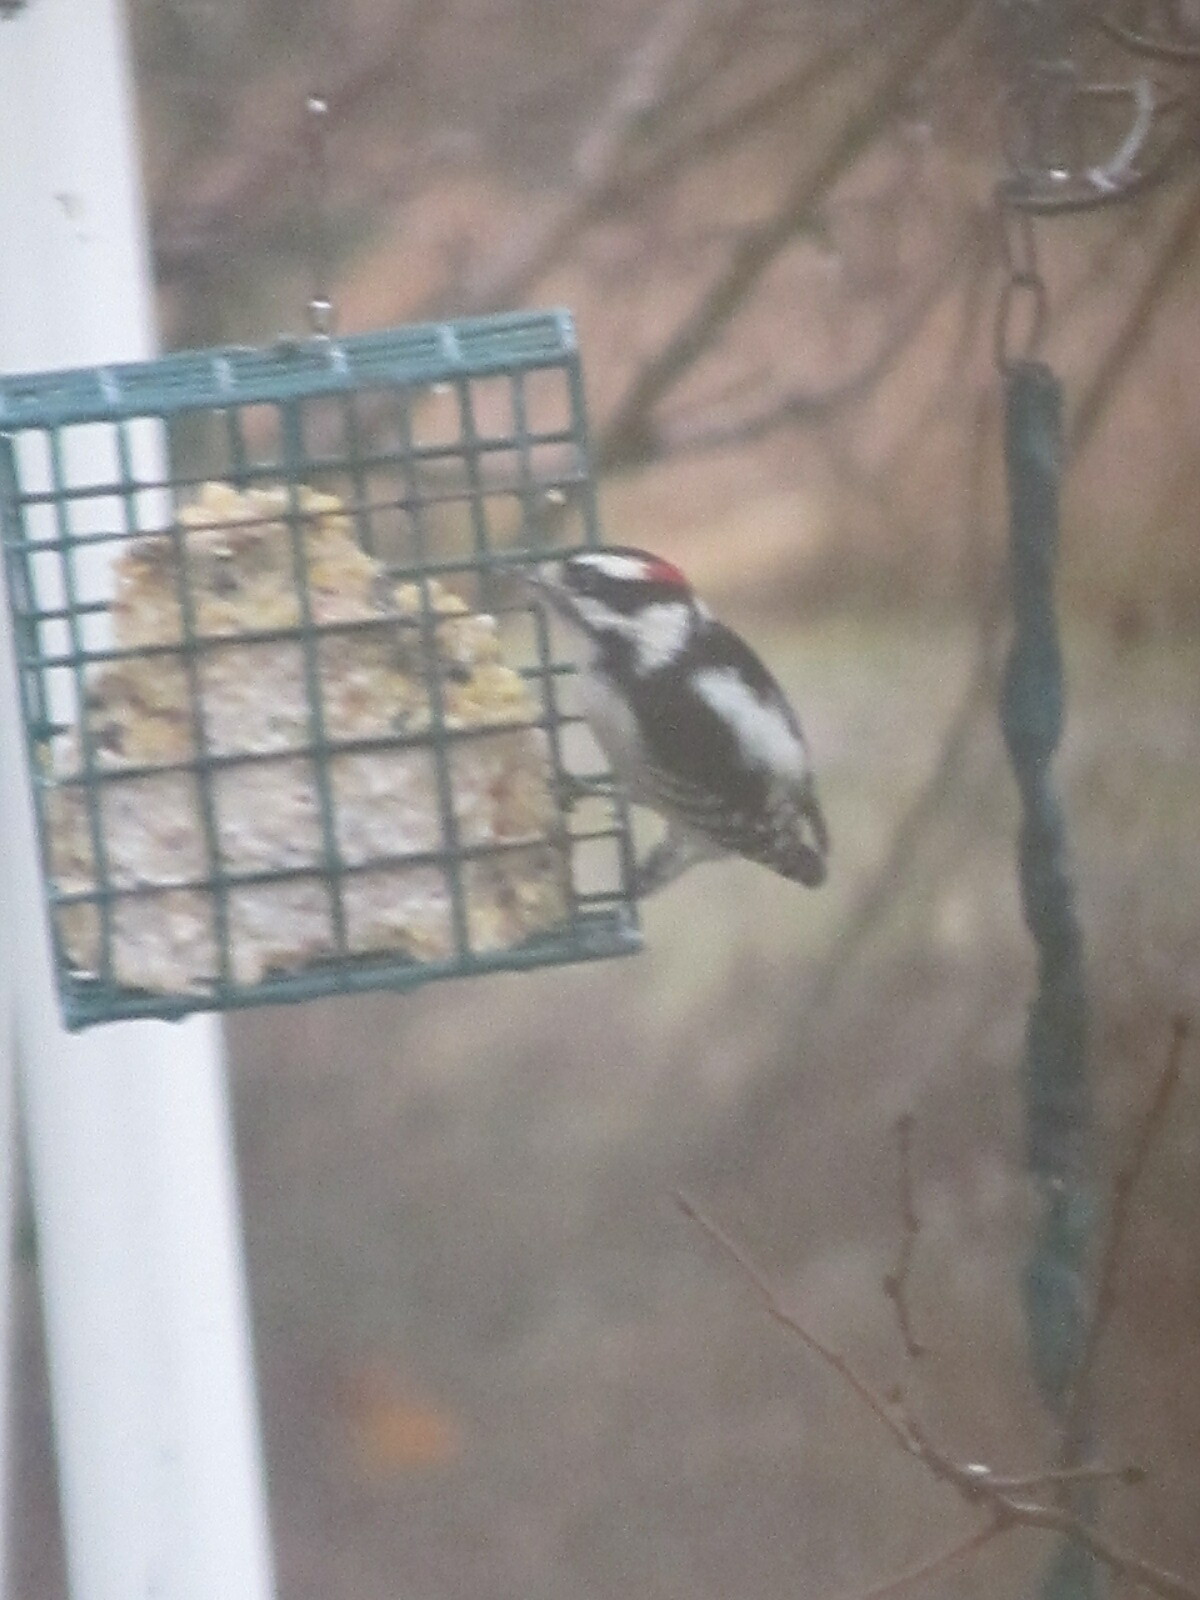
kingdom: Animalia
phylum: Chordata
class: Aves
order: Piciformes
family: Picidae
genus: Dryobates
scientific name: Dryobates pubescens
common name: Downy woodpecker
